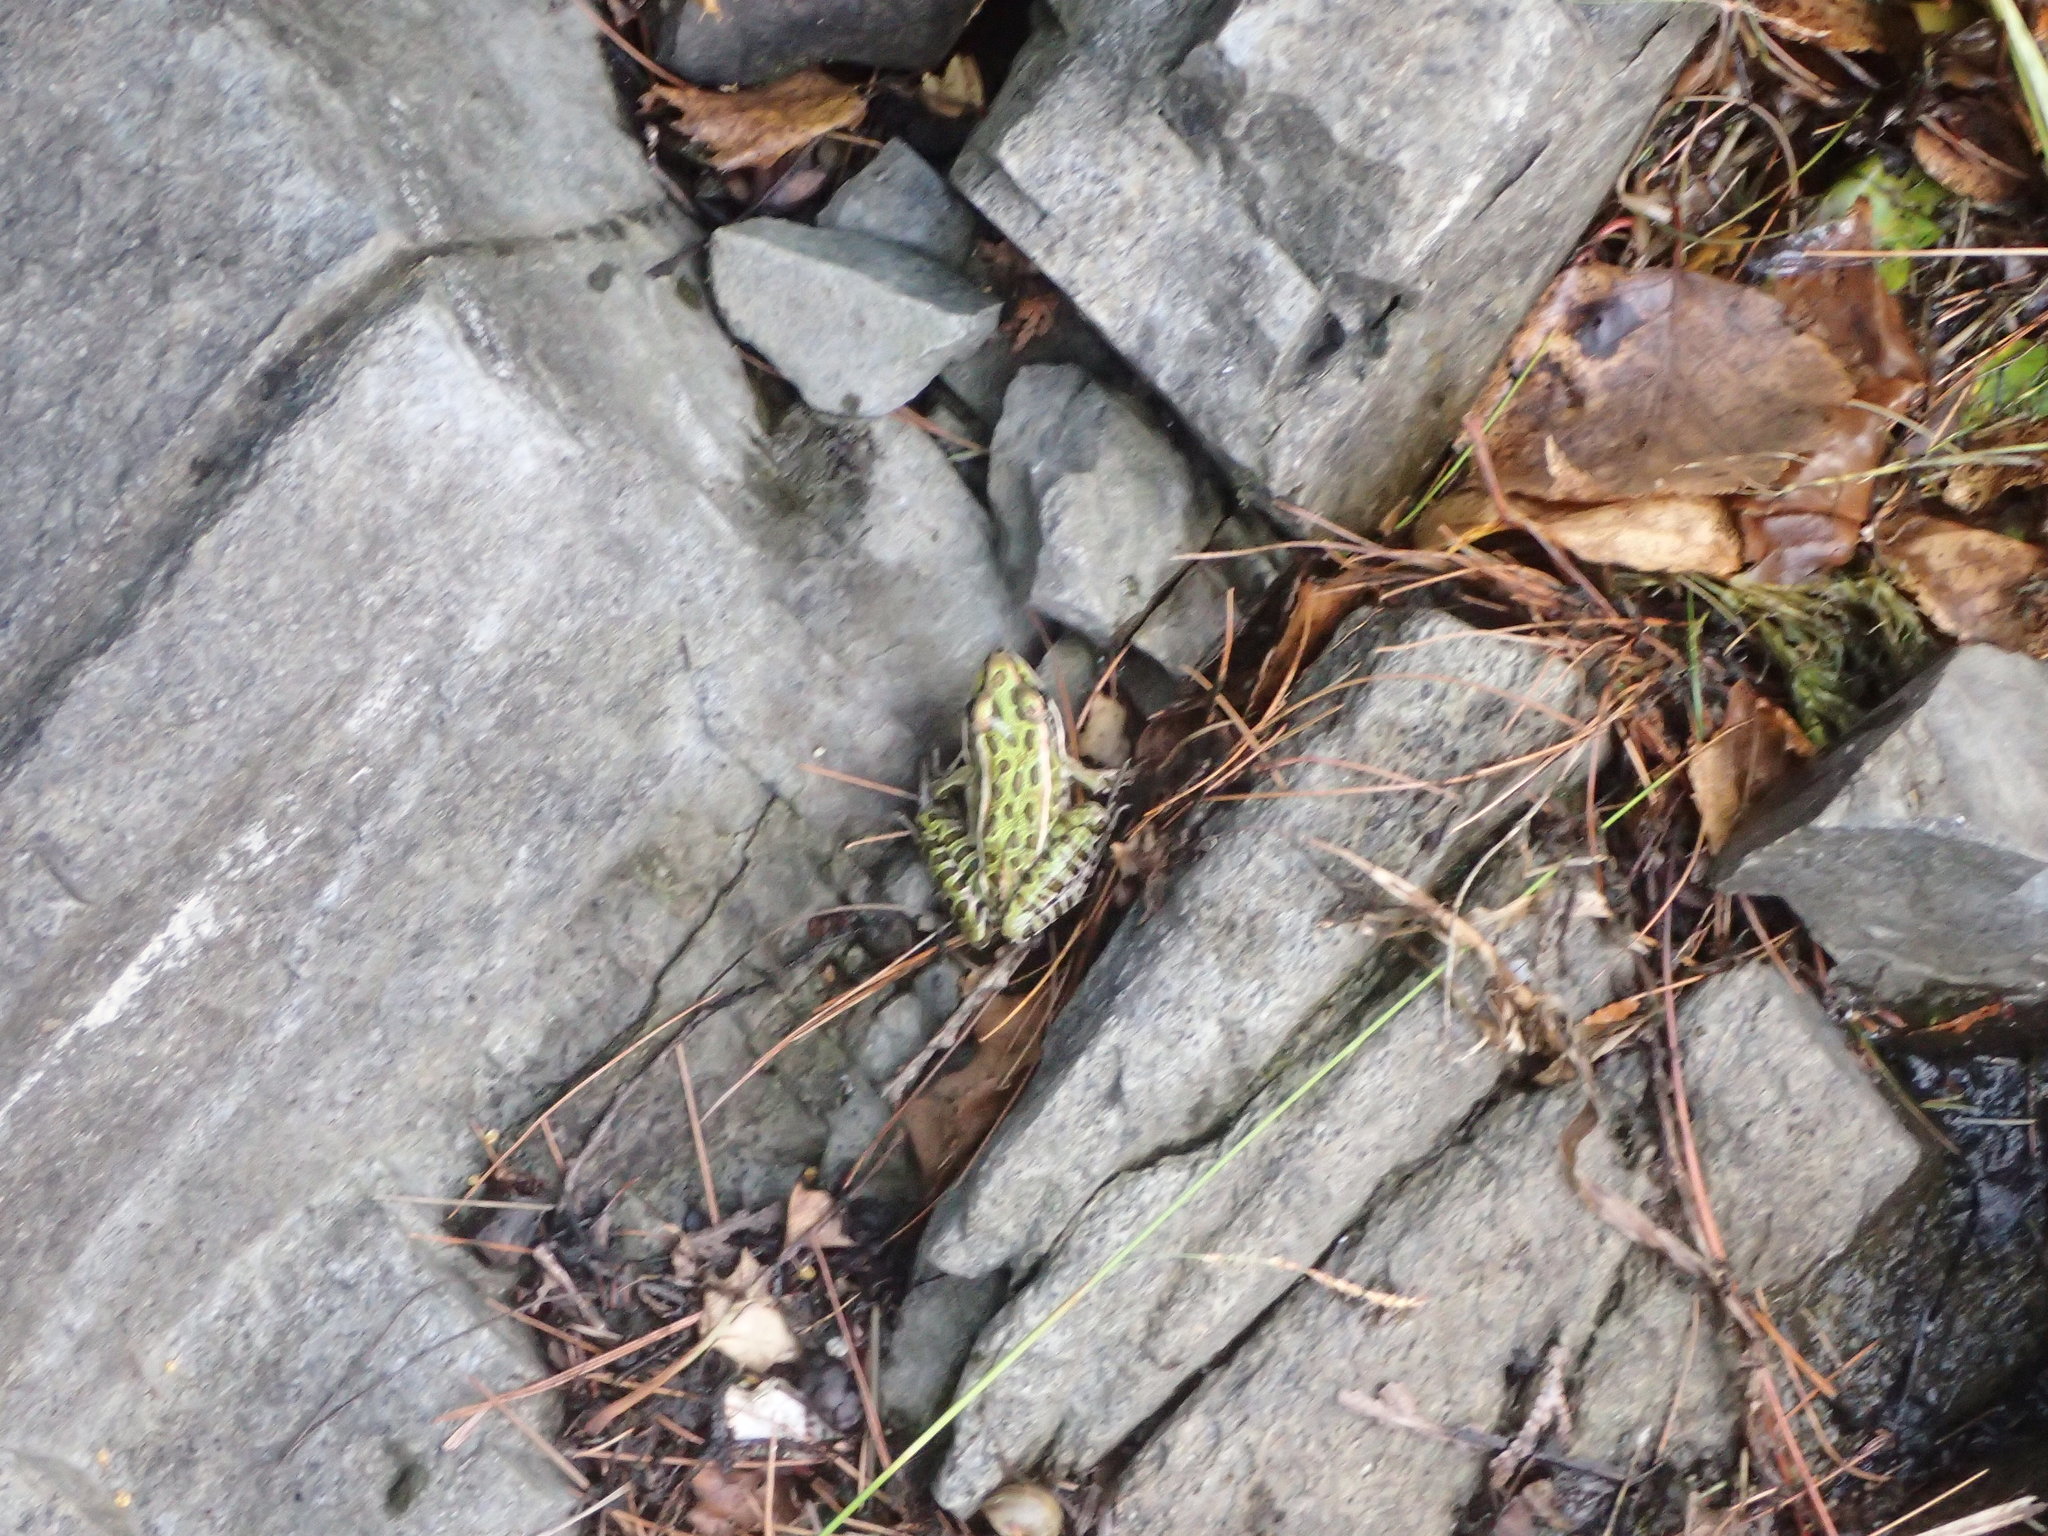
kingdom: Animalia
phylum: Chordata
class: Amphibia
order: Anura
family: Ranidae
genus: Lithobates
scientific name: Lithobates pipiens
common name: Northern leopard frog
